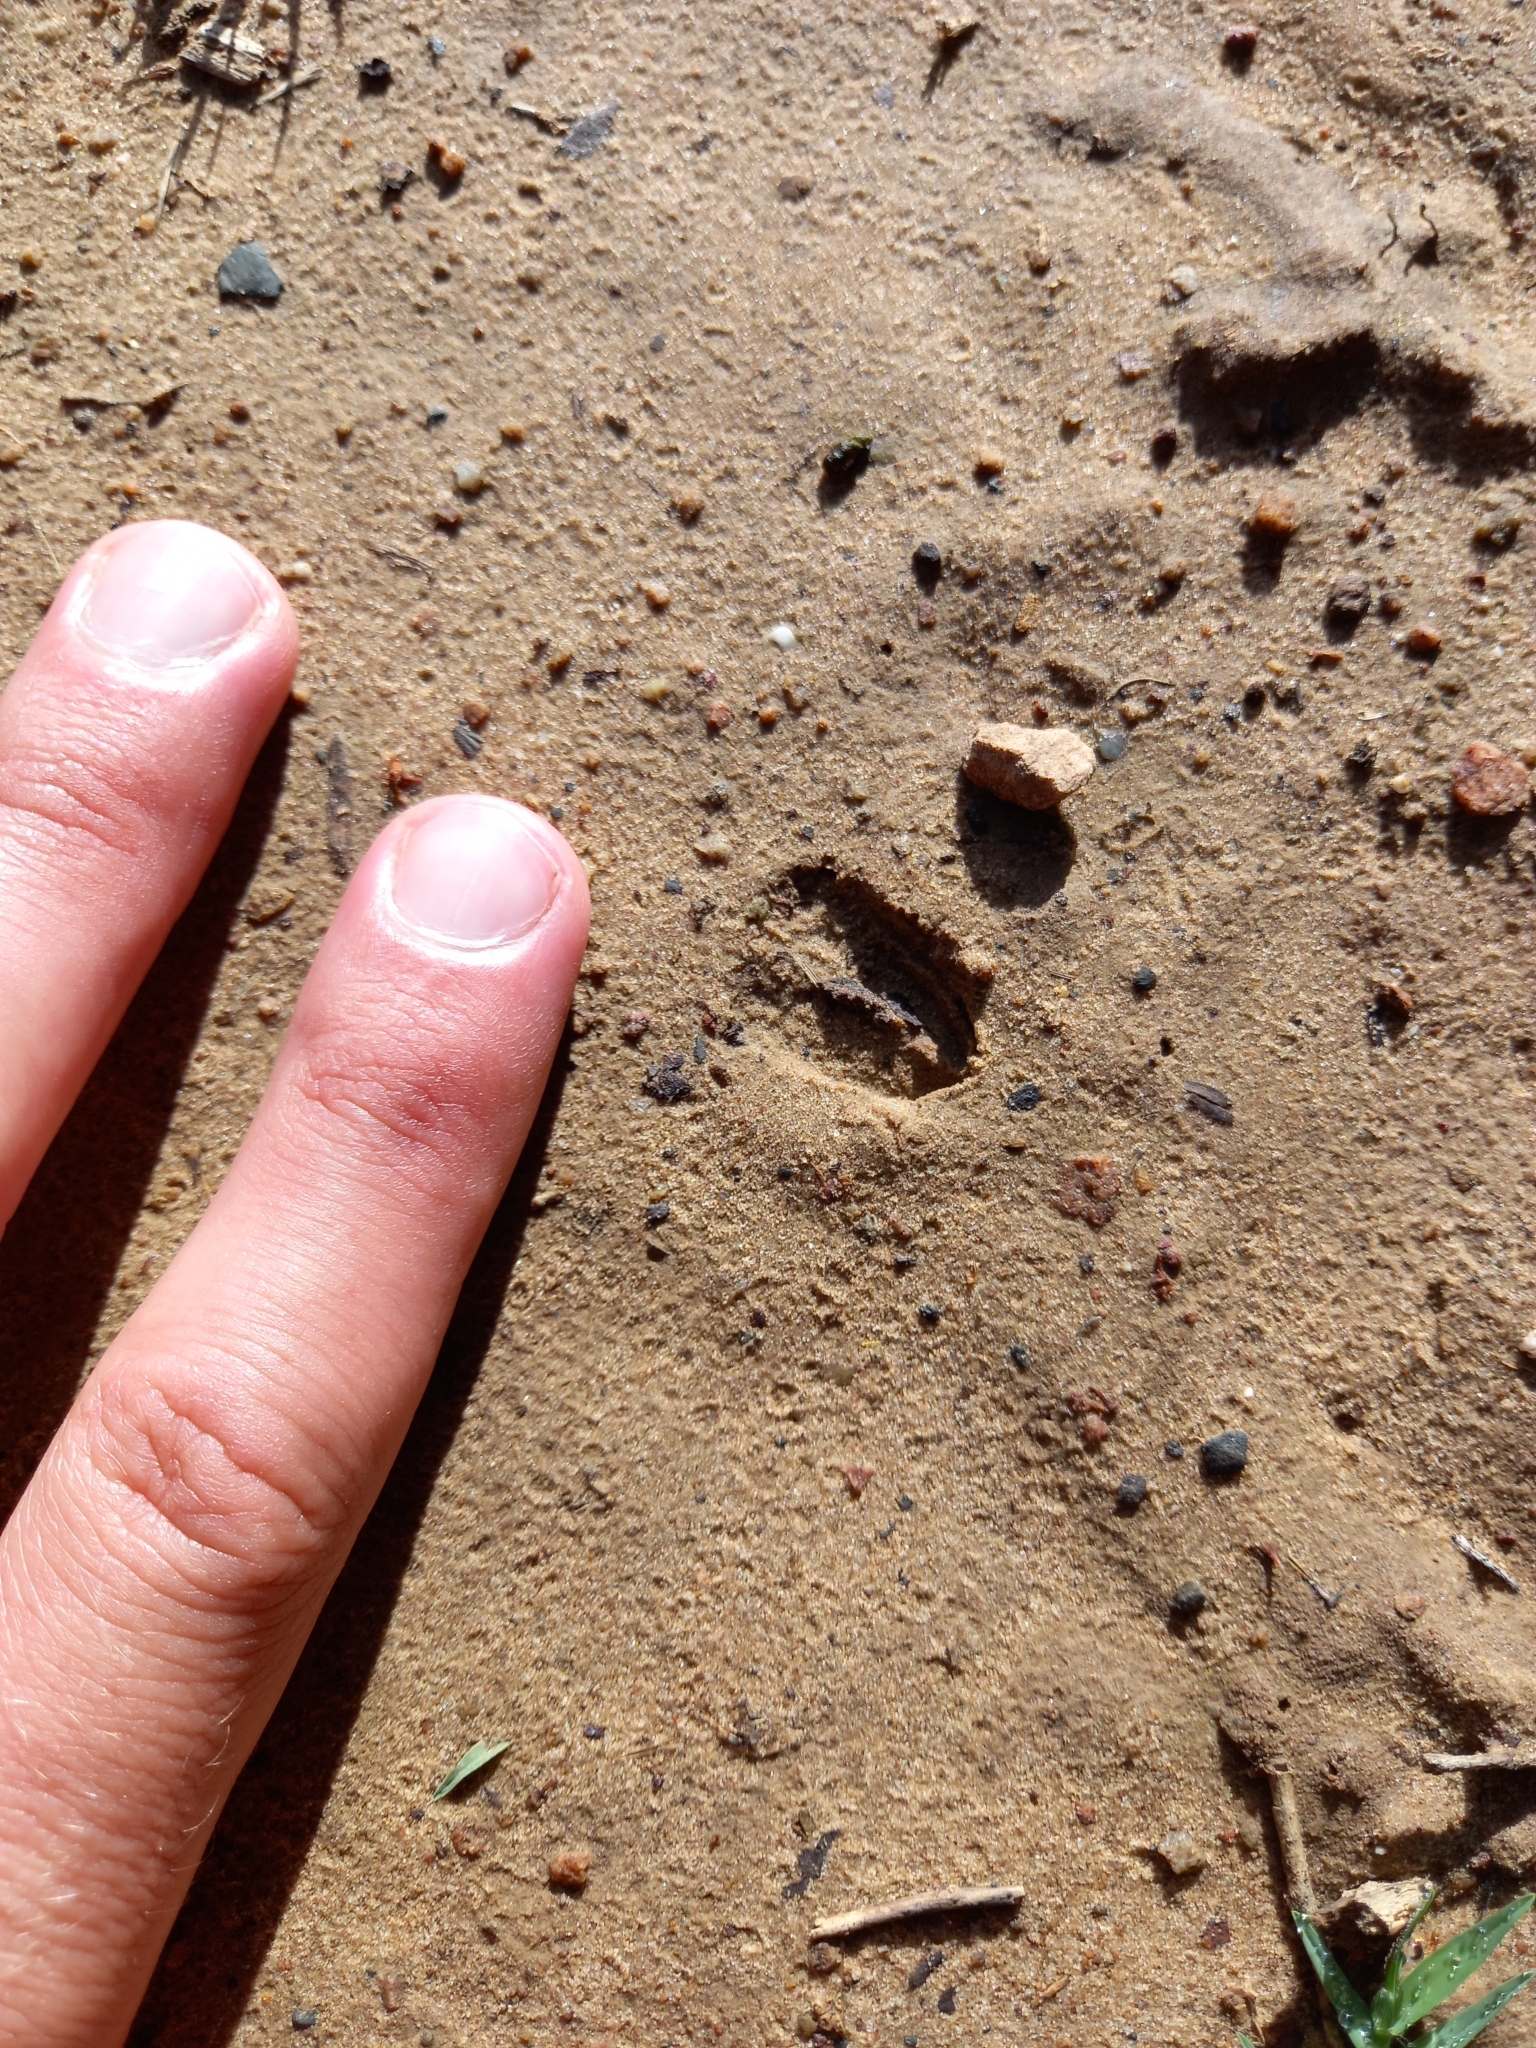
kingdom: Animalia
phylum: Chordata
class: Mammalia
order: Artiodactyla
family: Bovidae
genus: Philantomba
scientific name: Philantomba monticola
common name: Blue duiker
